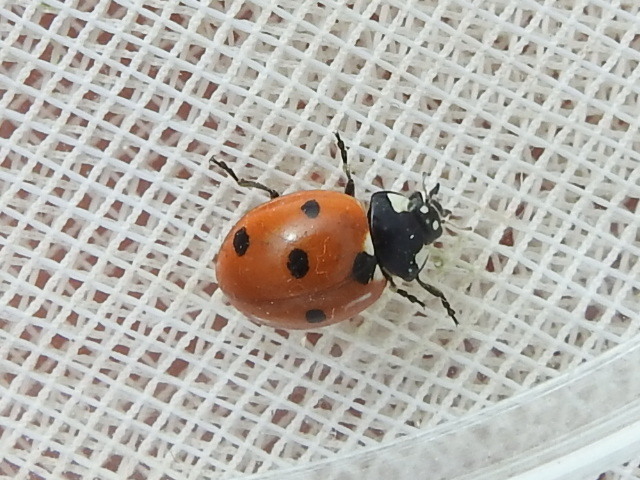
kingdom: Animalia
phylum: Arthropoda
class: Insecta
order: Coleoptera
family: Coccinellidae
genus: Coccinella
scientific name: Coccinella septempunctata
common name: Sevenspotted lady beetle
